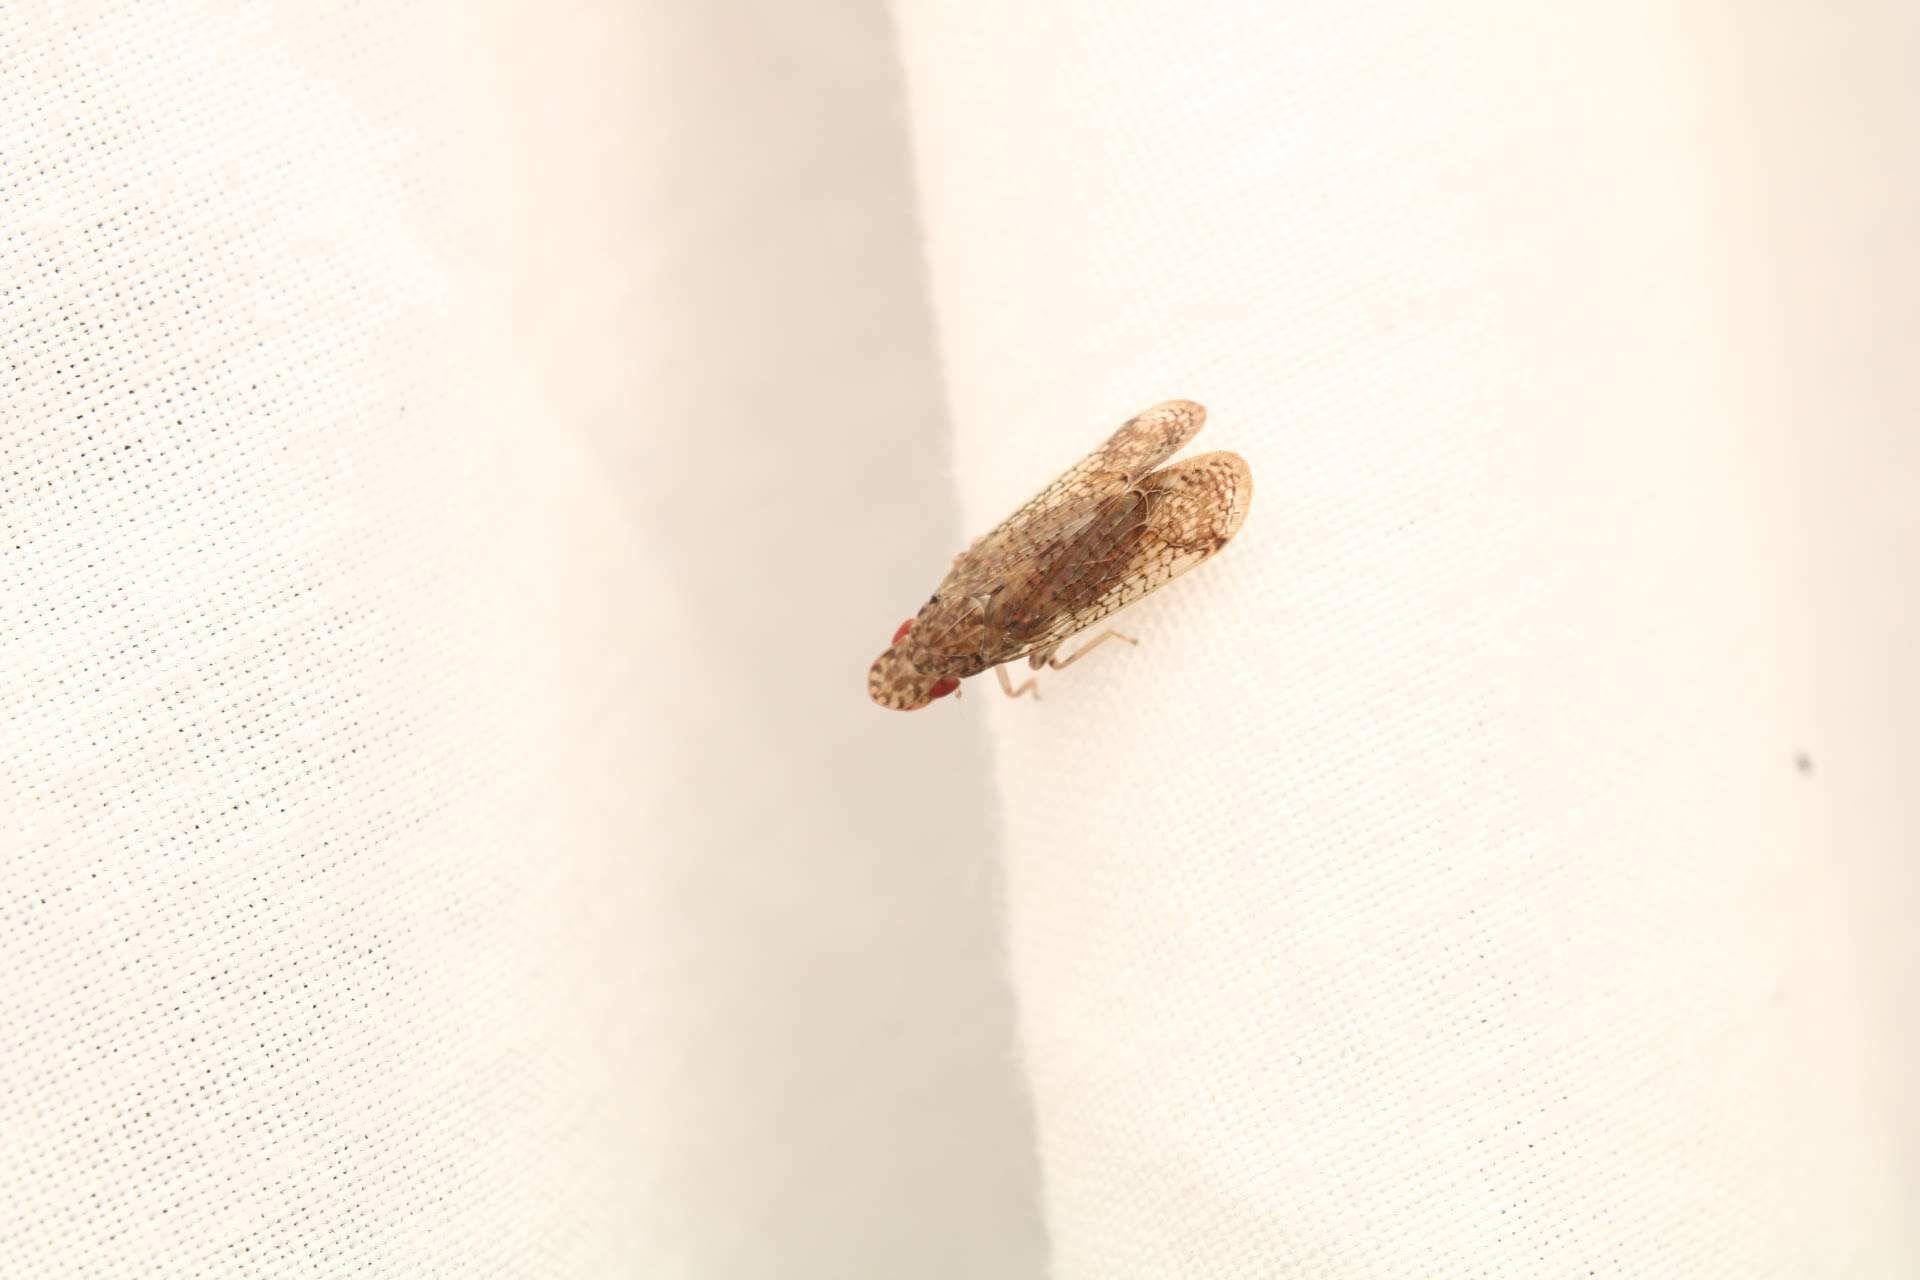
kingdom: Animalia
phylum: Arthropoda
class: Insecta
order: Hemiptera
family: Tropiduchidae
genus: Pelitropis
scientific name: Pelitropis rotulata
